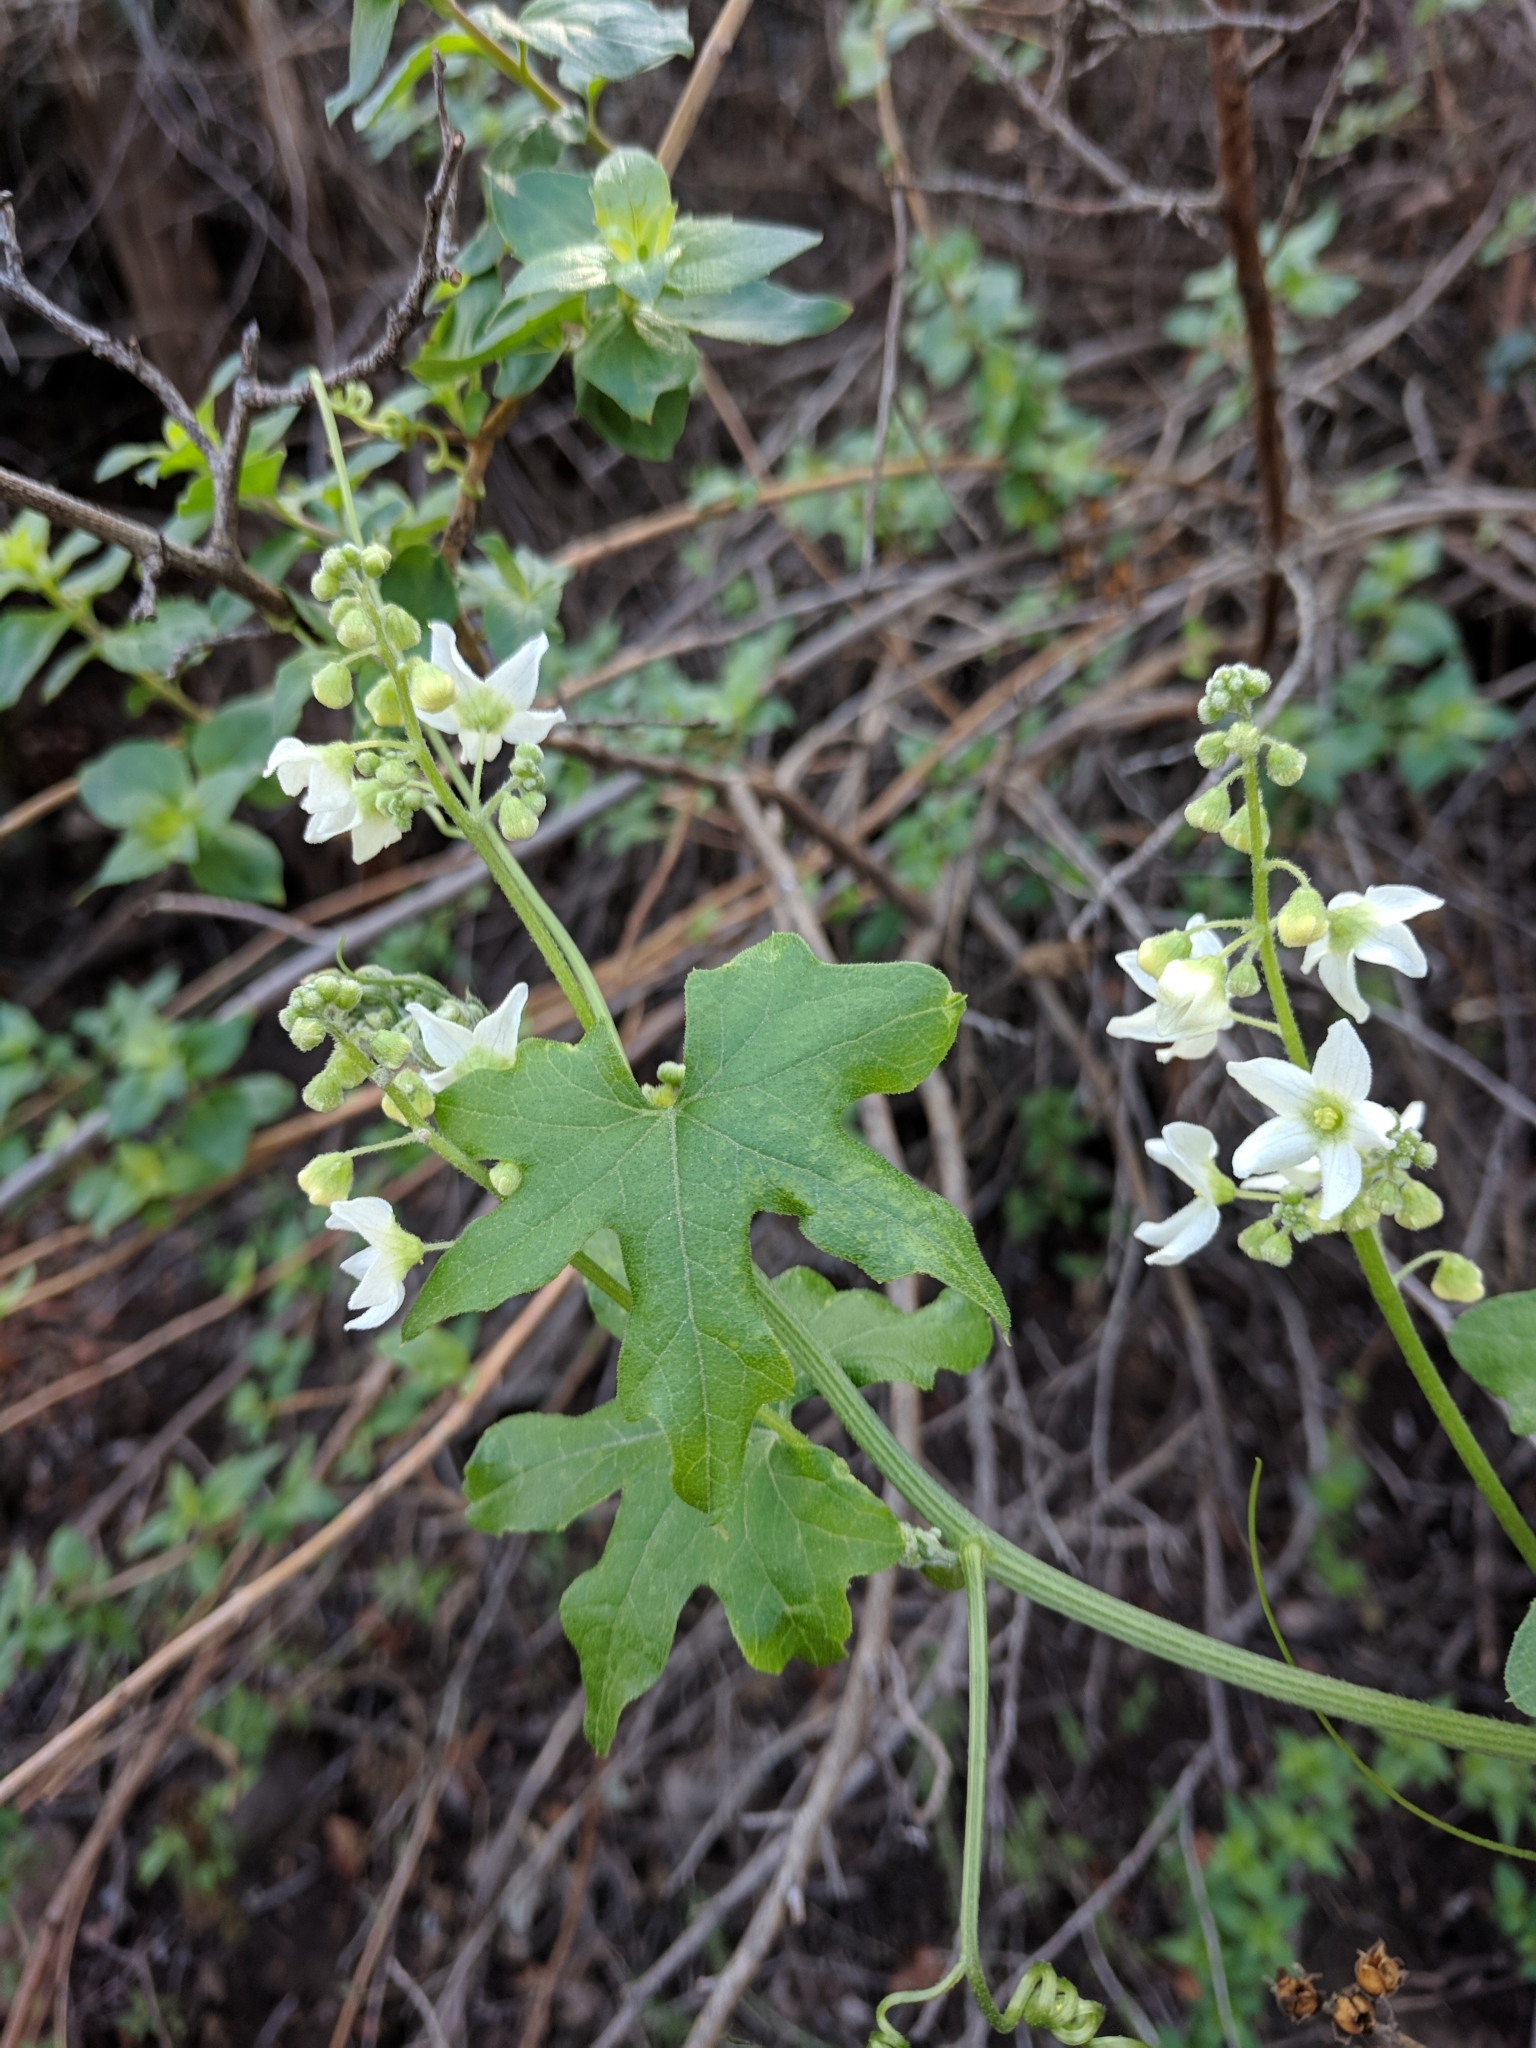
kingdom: Plantae
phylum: Tracheophyta
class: Magnoliopsida
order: Cucurbitales
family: Cucurbitaceae
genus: Marah
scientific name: Marah macrocarpa
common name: Cucamonga manroot
